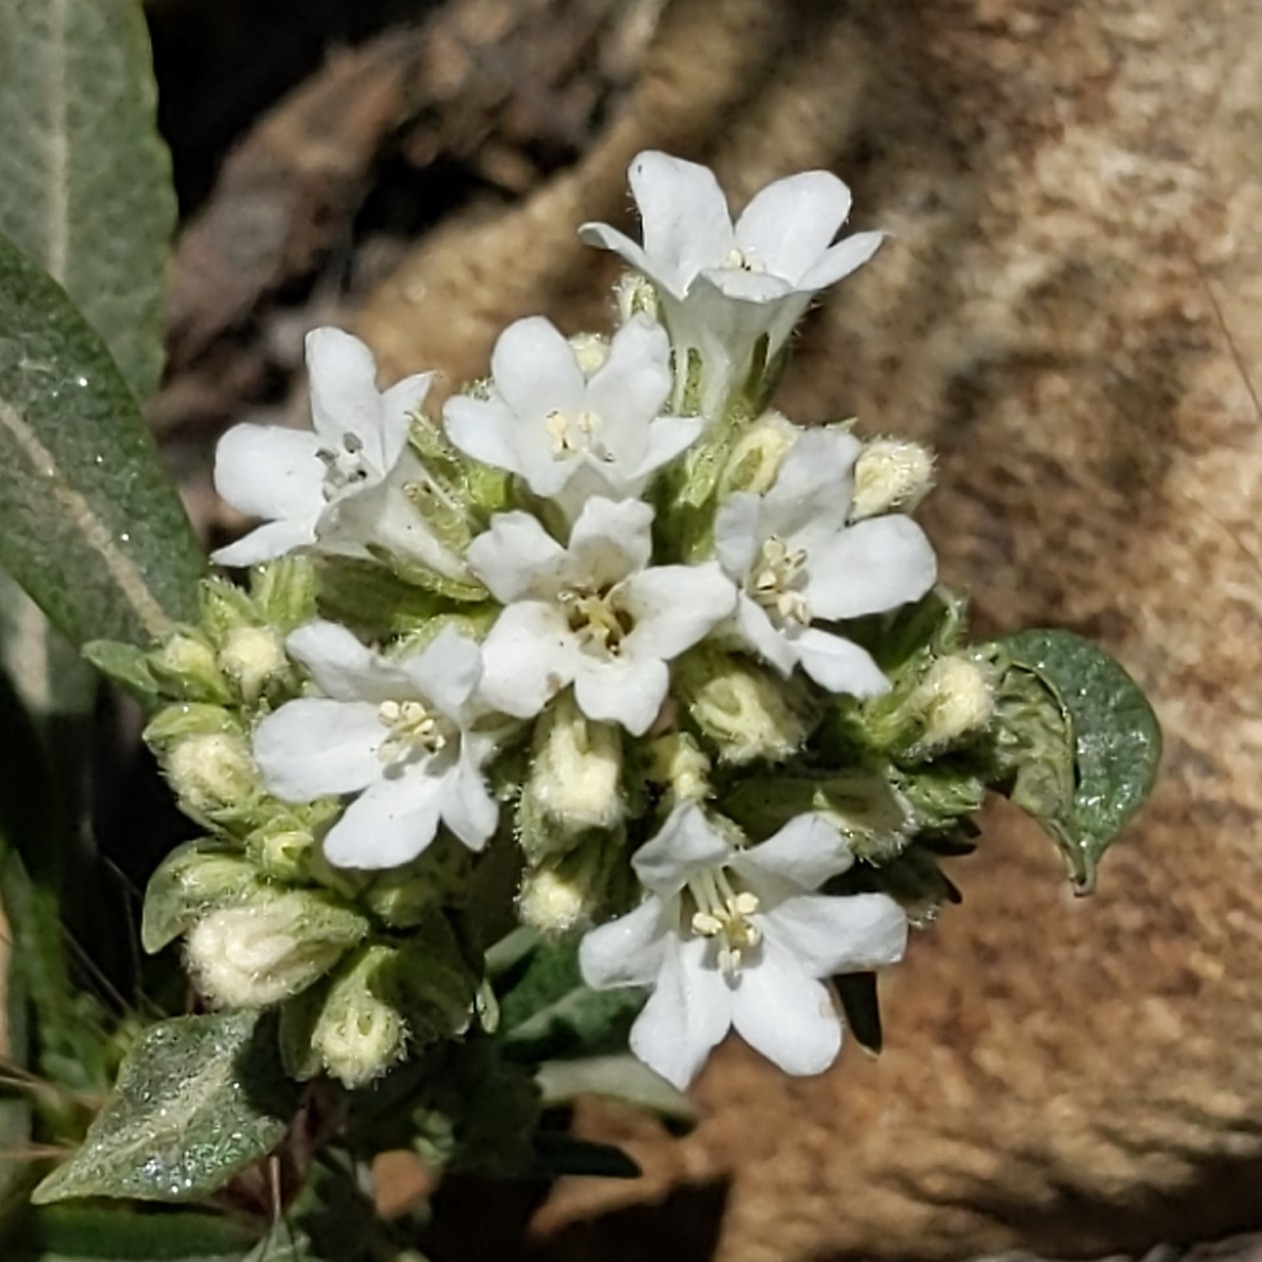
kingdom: Plantae
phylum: Tracheophyta
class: Magnoliopsida
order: Boraginales
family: Namaceae
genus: Eriodictyon
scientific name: Eriodictyon trichocalyx
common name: Hairy yerba-santa
